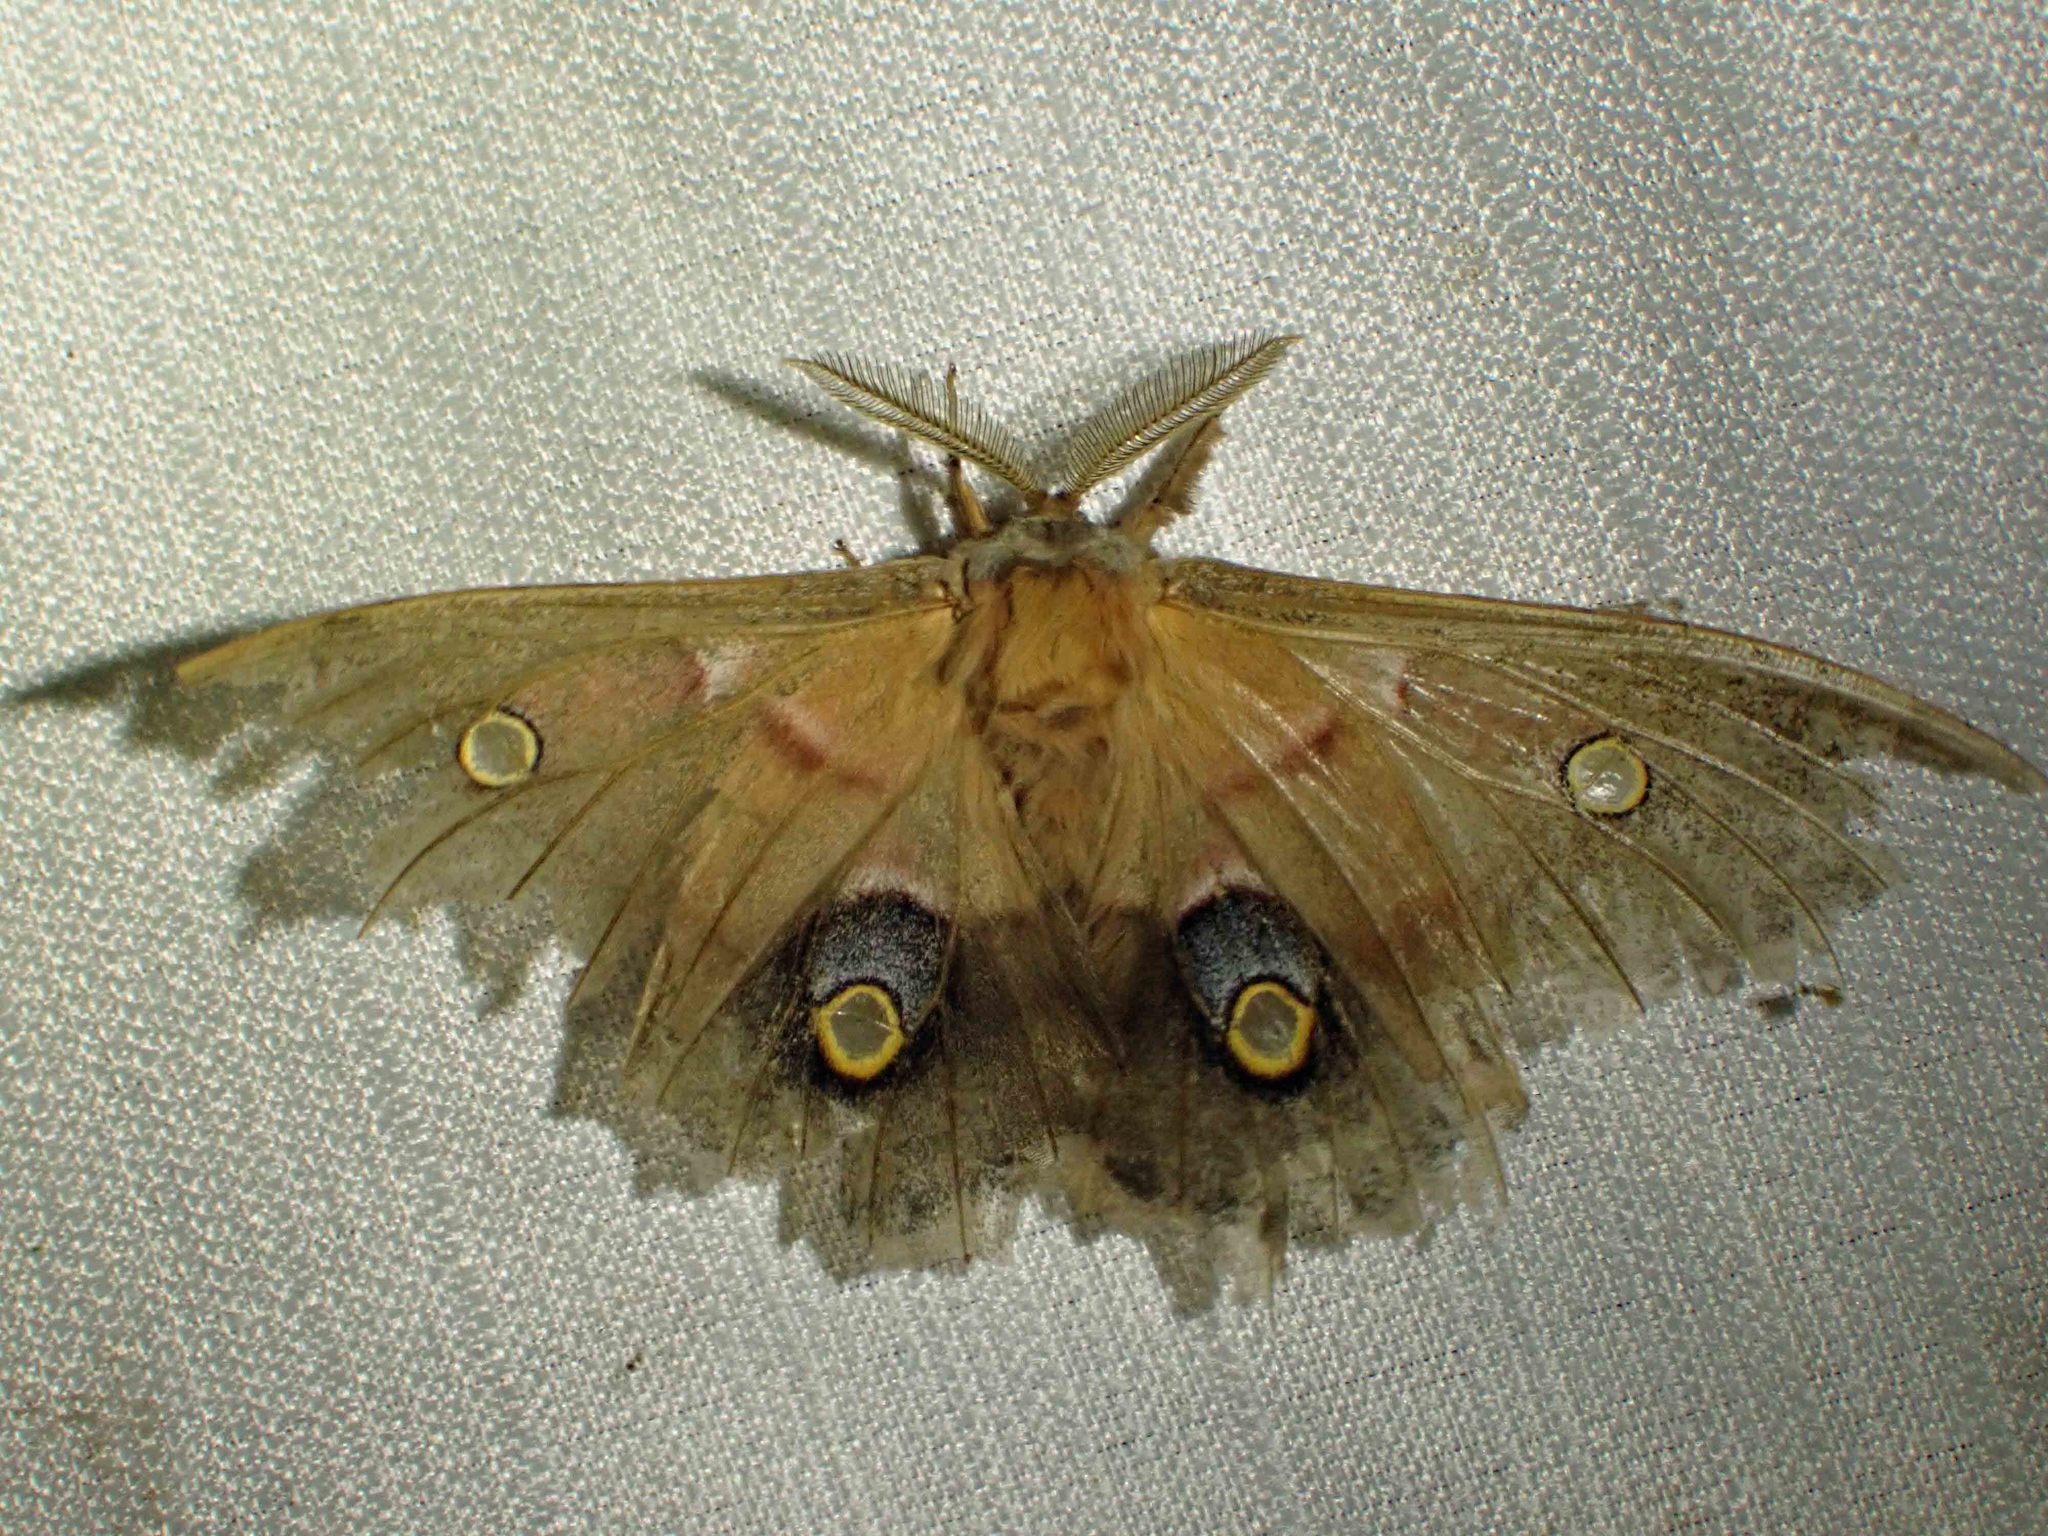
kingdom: Animalia
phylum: Arthropoda
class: Insecta
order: Lepidoptera
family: Saturniidae
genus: Antheraea
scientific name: Antheraea polyphemus
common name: Polyphemus moth
